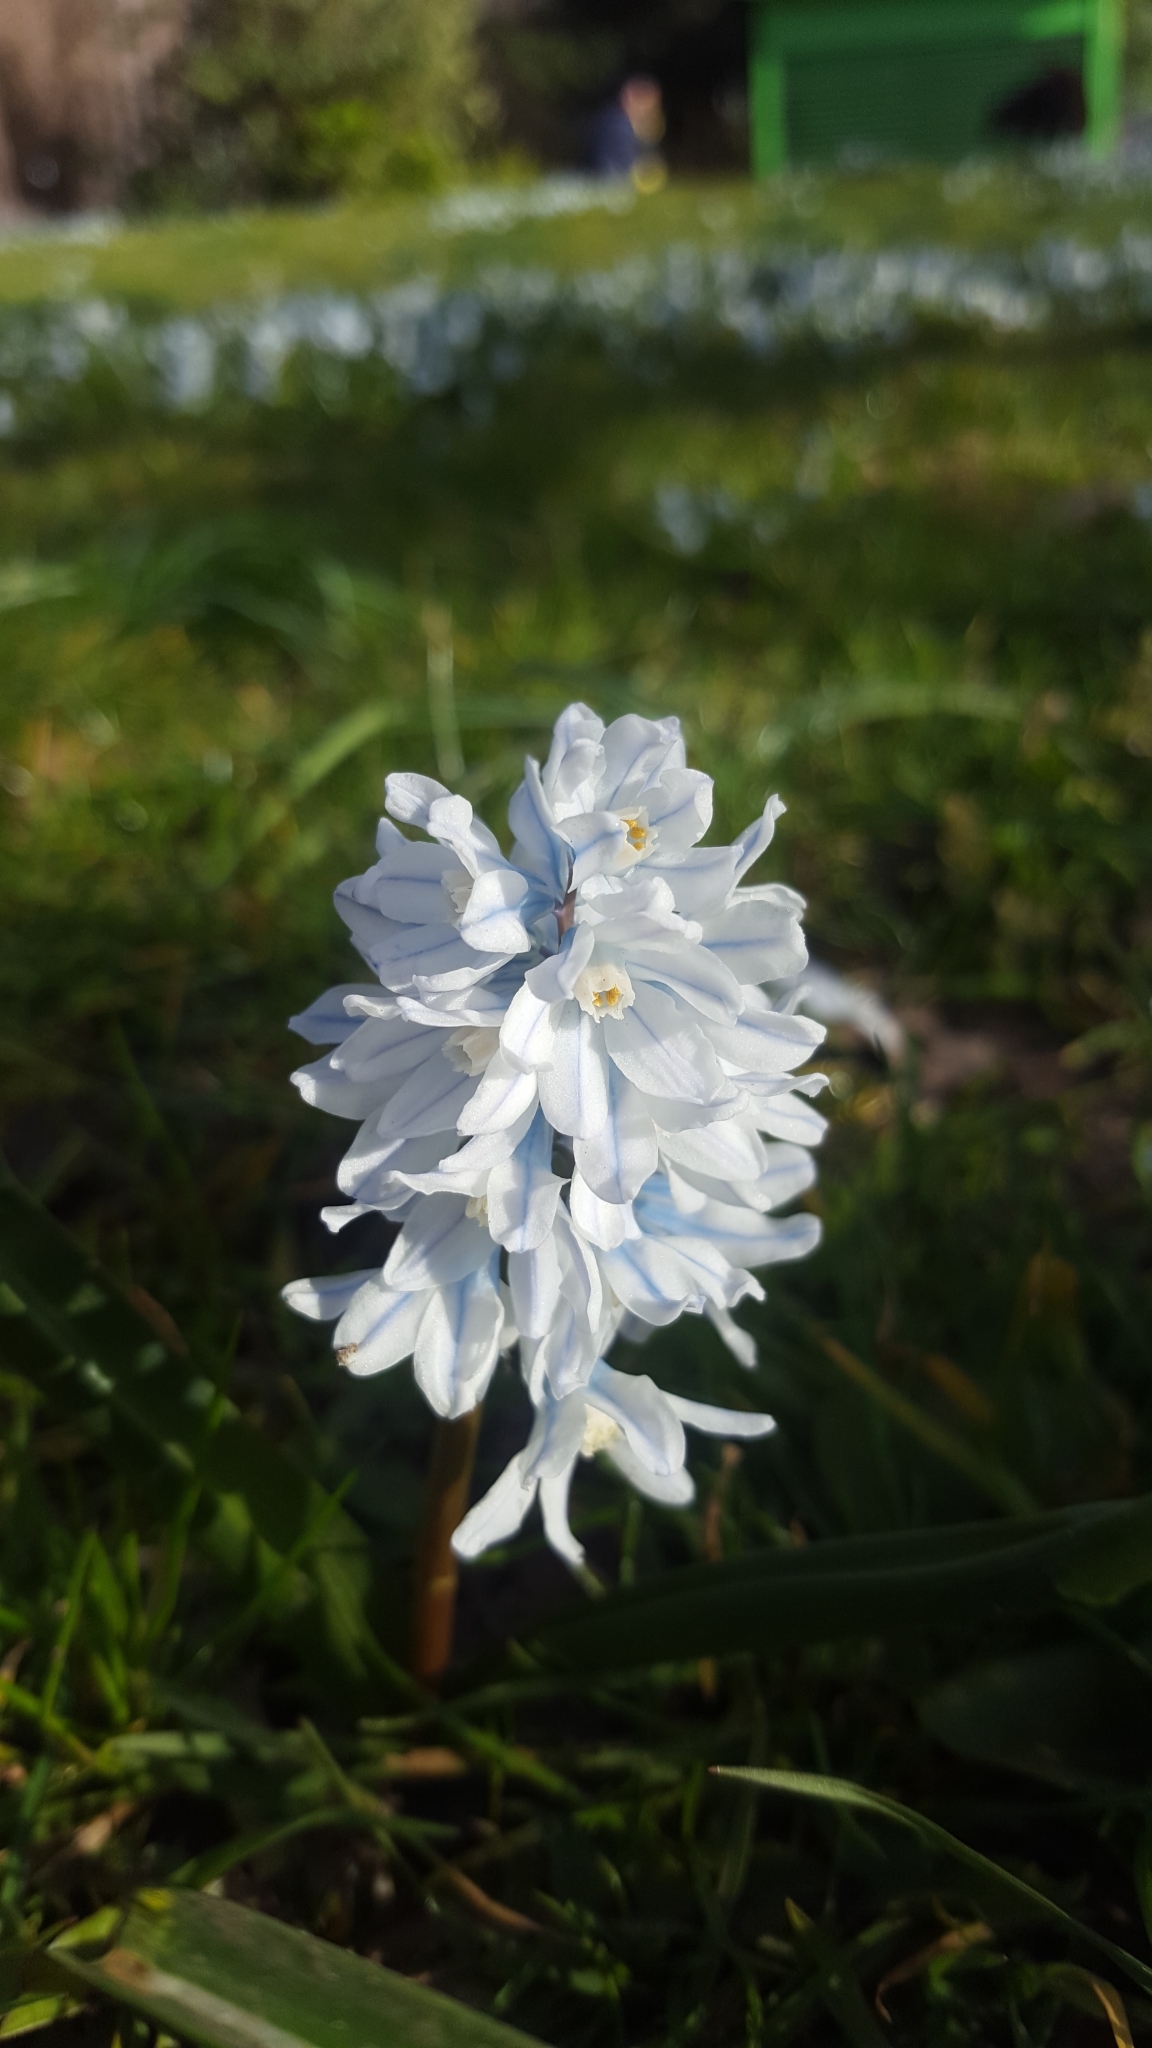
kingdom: Plantae
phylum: Tracheophyta
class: Liliopsida
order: Asparagales
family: Asparagaceae
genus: Puschkinia
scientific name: Puschkinia scilloides
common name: Striped squill
